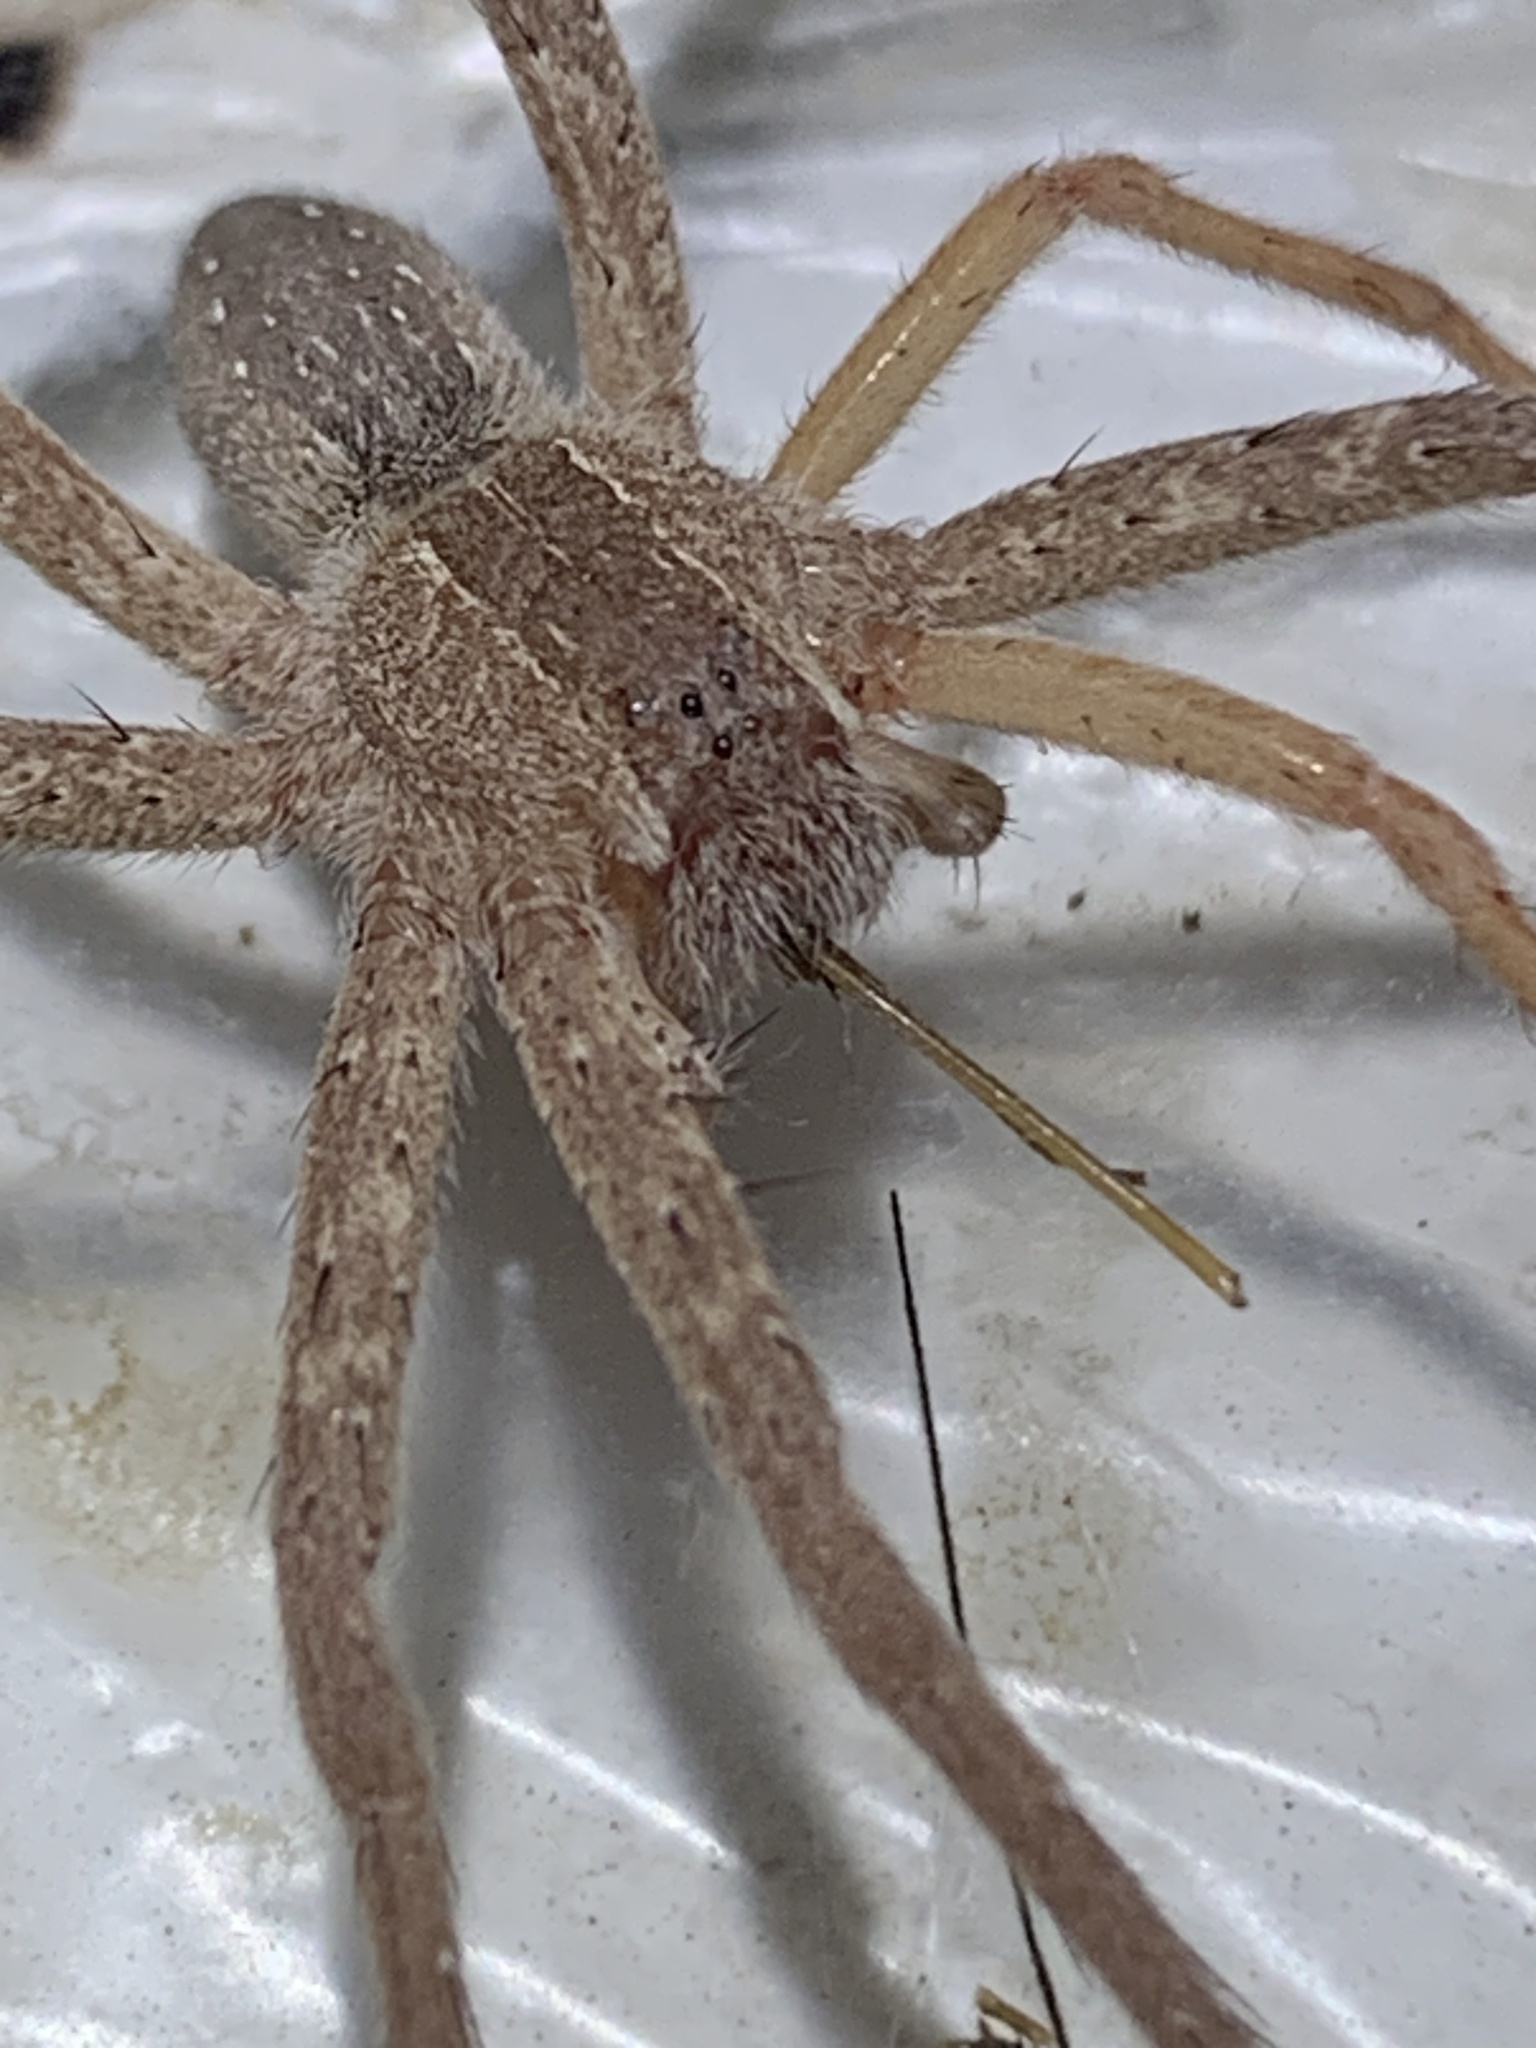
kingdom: Animalia
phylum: Arthropoda
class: Arachnida
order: Araneae
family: Pisauridae
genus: Pisaurina
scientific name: Pisaurina mira
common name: American nursery web spider
